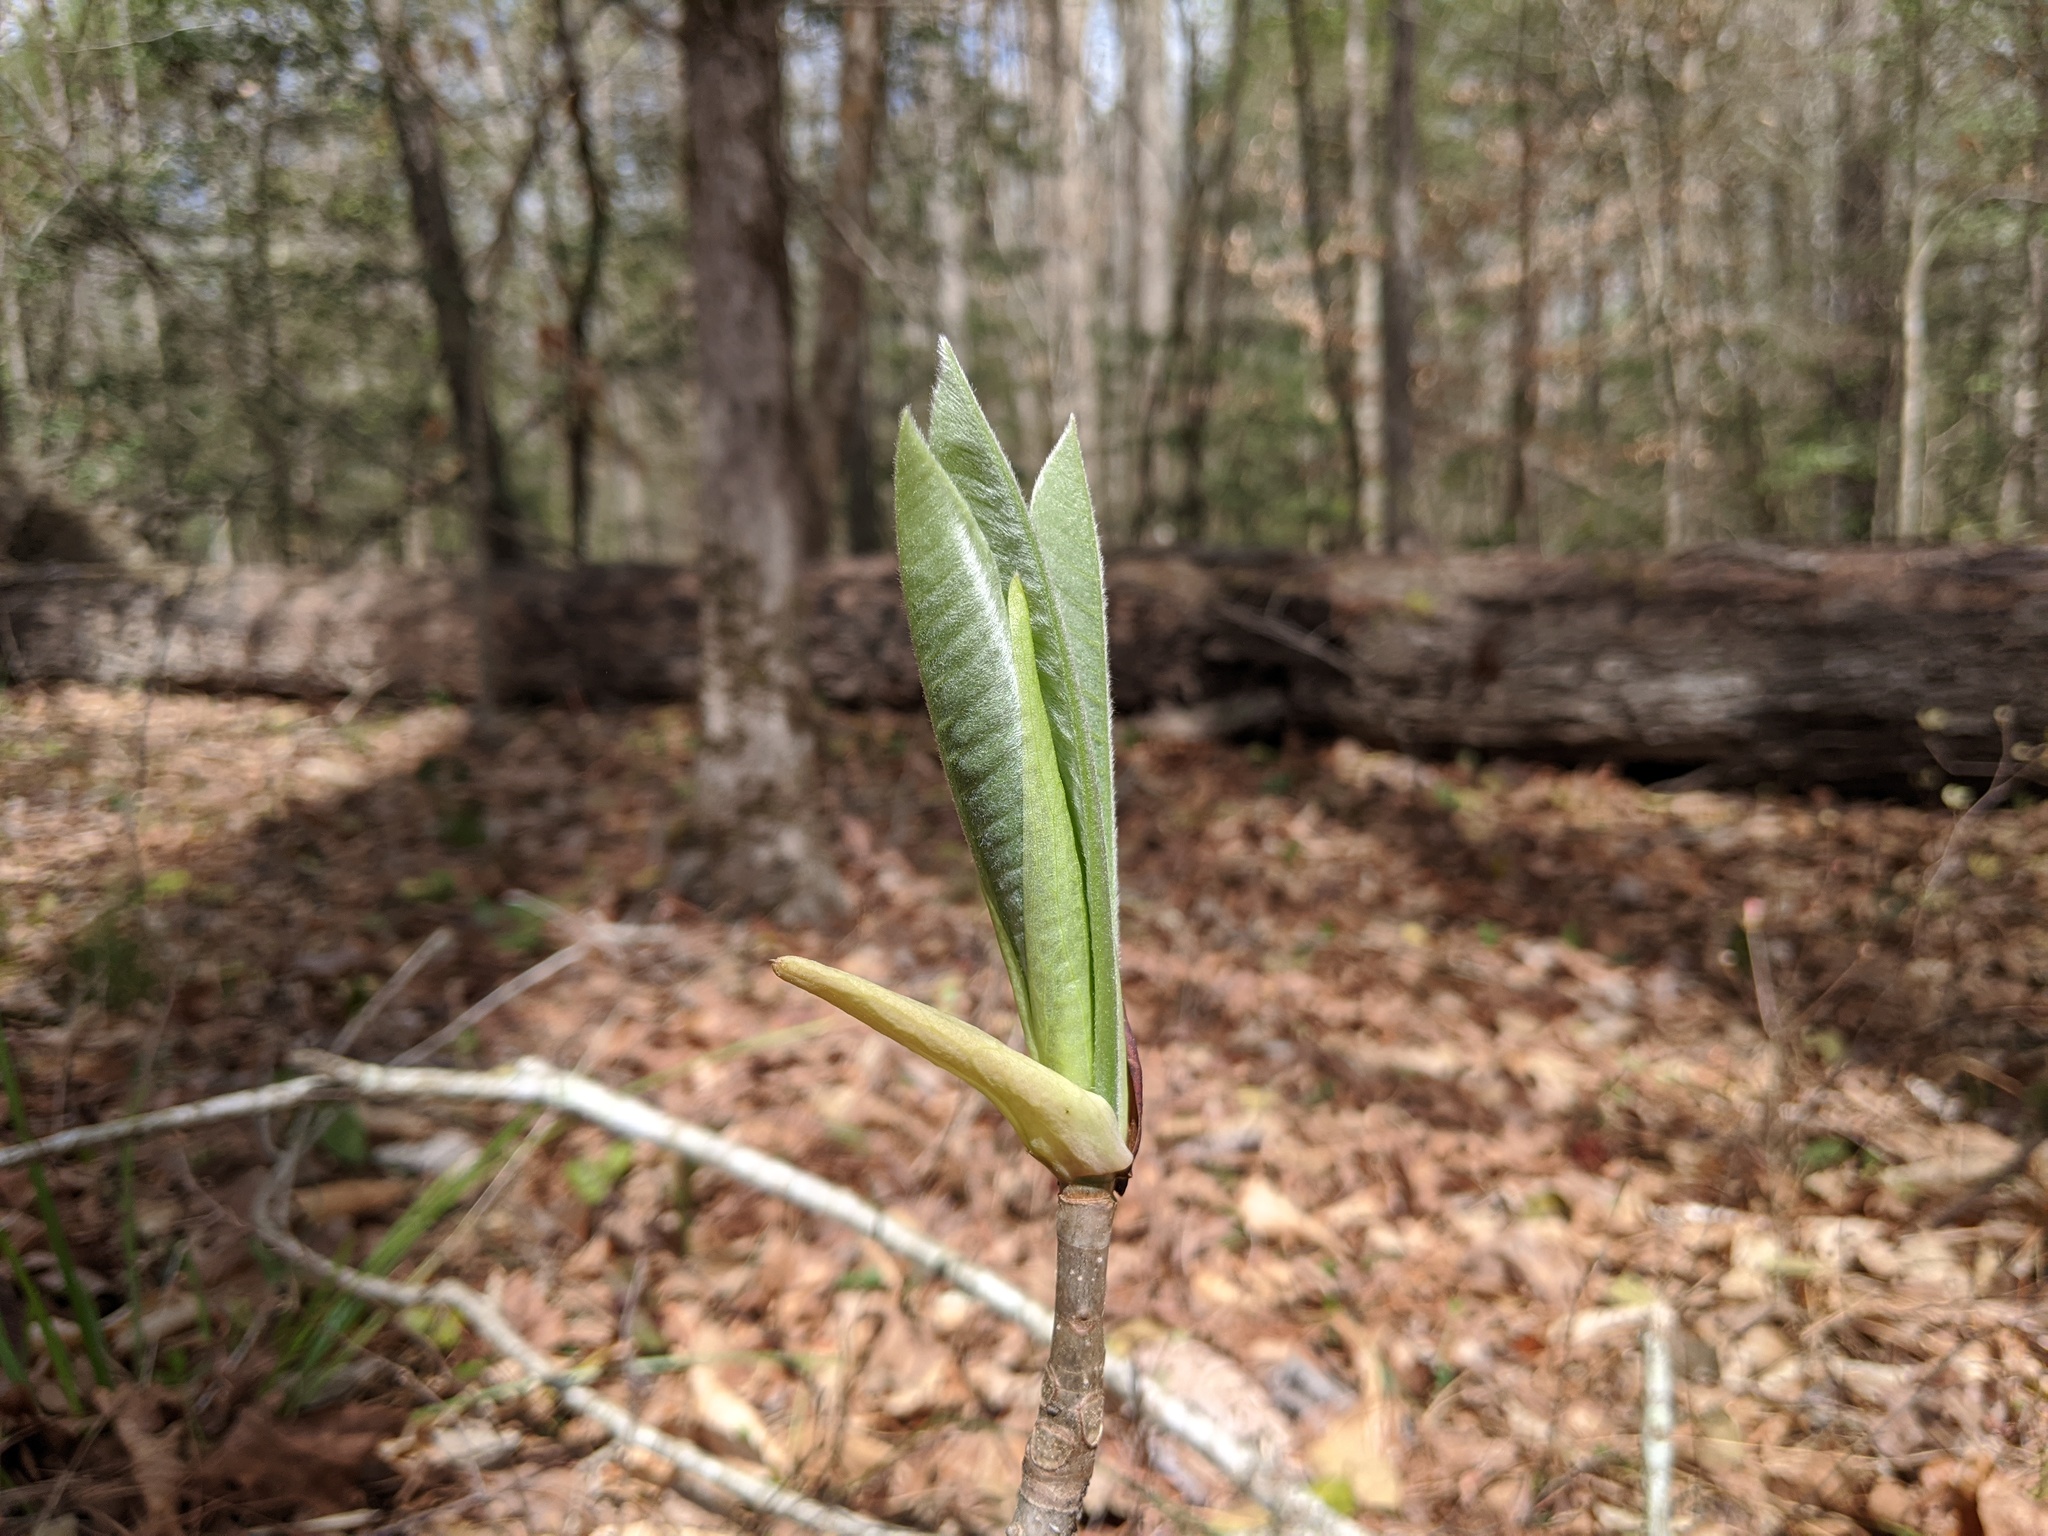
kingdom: Plantae
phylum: Tracheophyta
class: Magnoliopsida
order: Magnoliales
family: Magnoliaceae
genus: Magnolia
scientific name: Magnolia tripetala
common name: Umbrella magnolia
